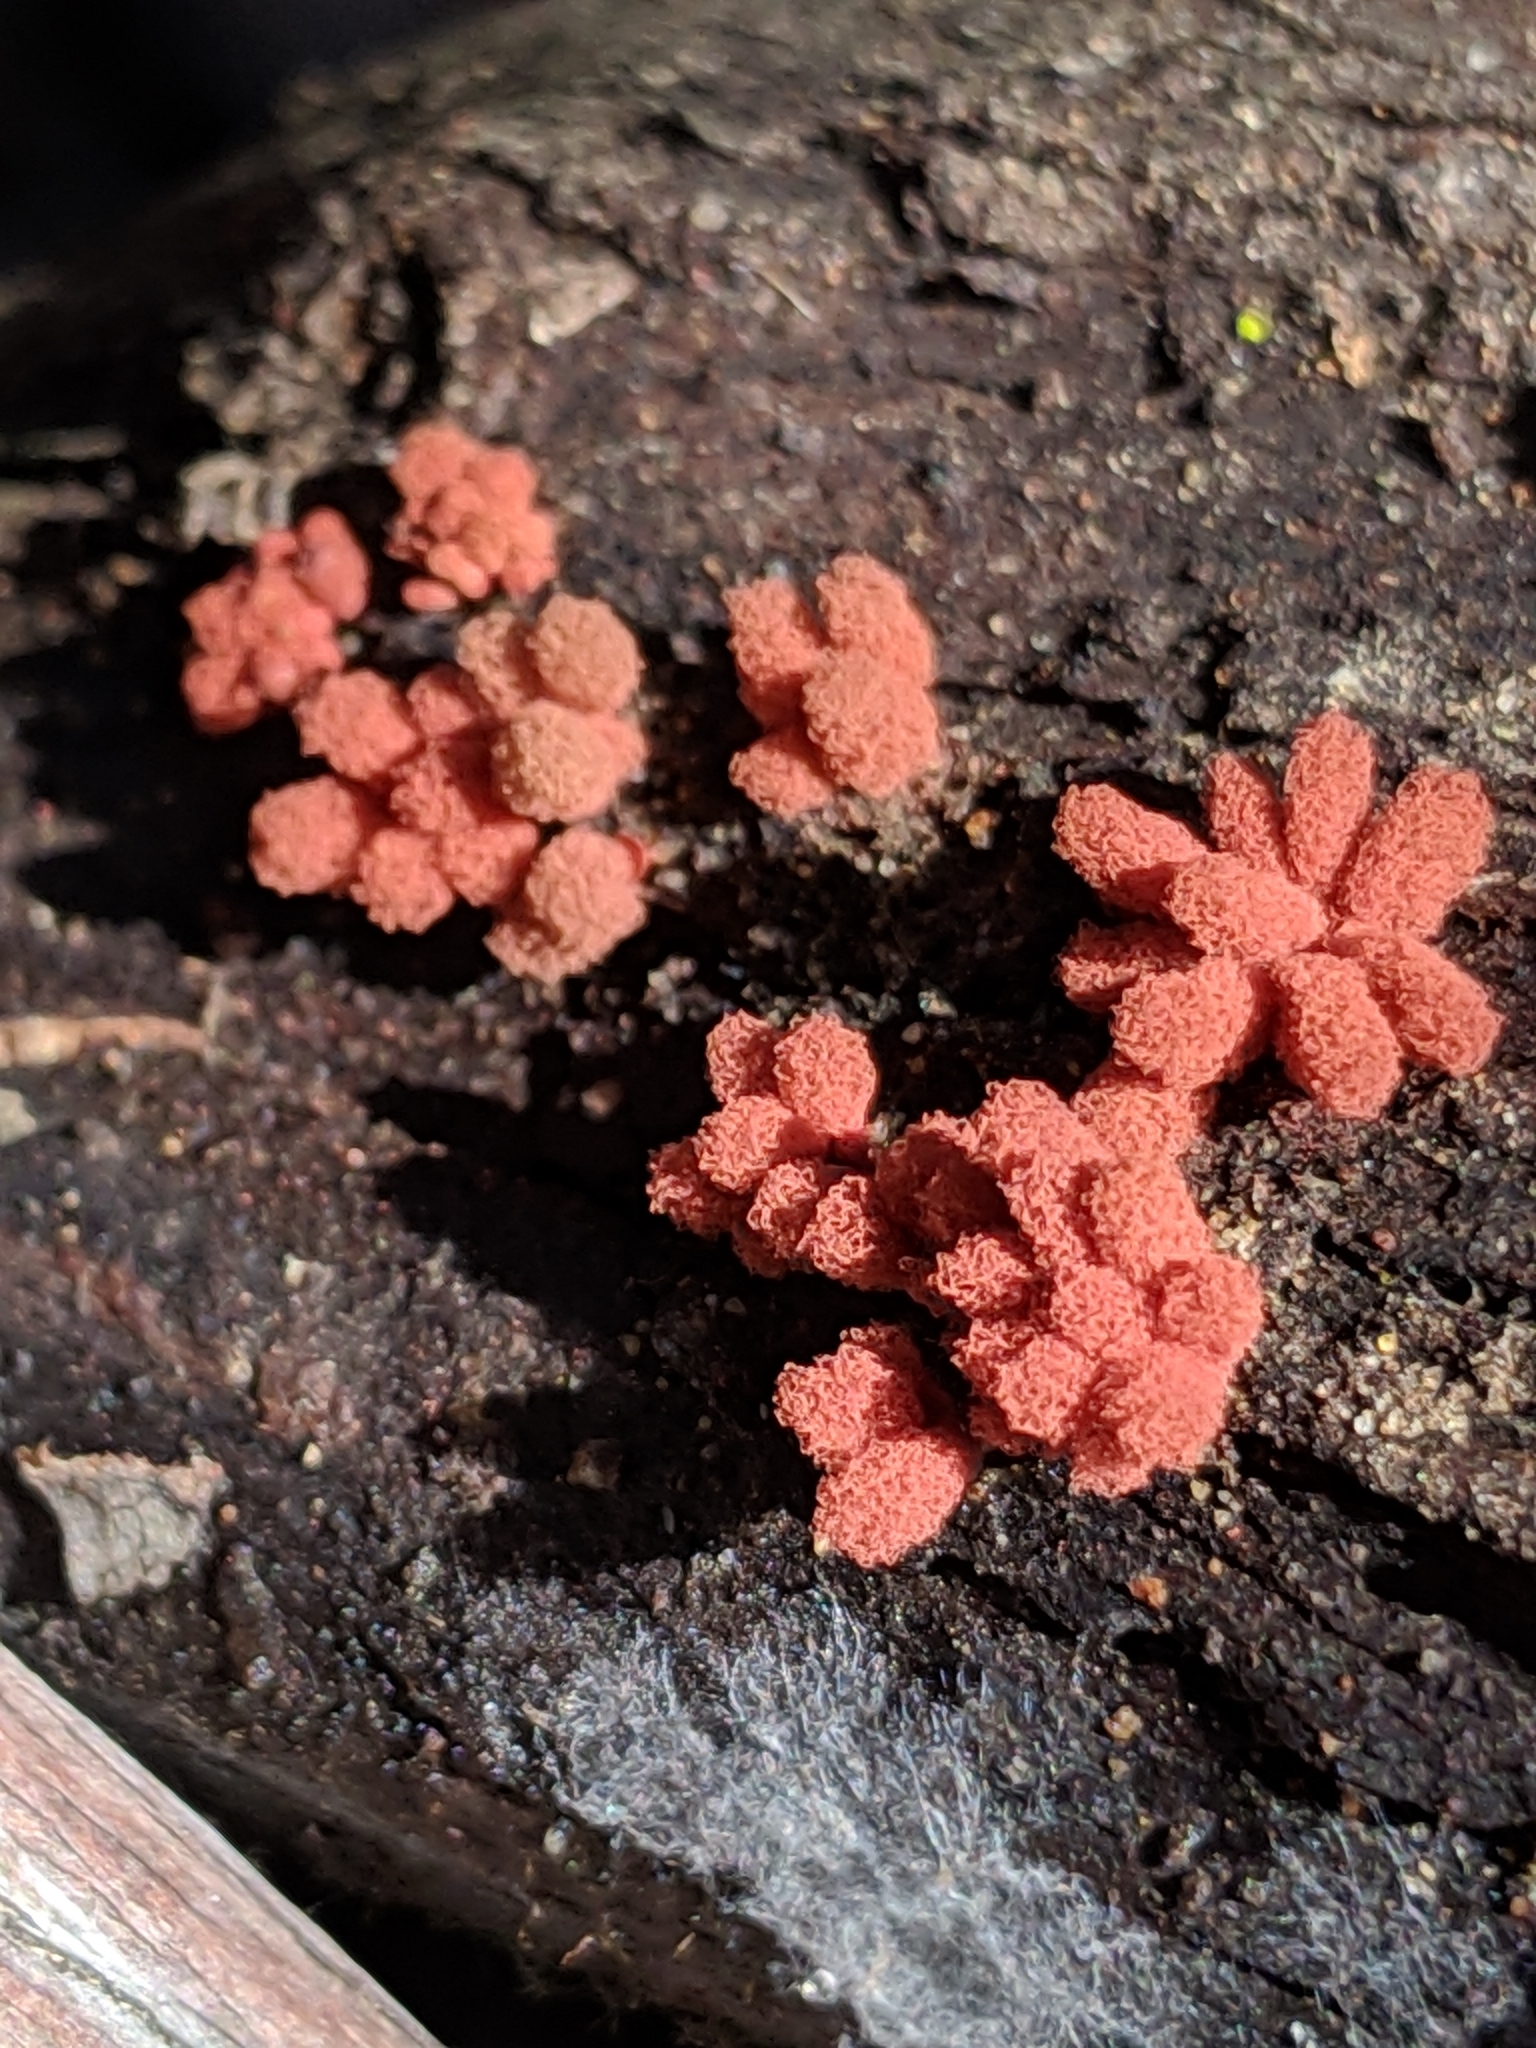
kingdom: Protozoa
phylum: Mycetozoa
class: Myxomycetes
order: Trichiales
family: Arcyriaceae
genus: Arcyria
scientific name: Arcyria denudata
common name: Carnival candy slime mold
